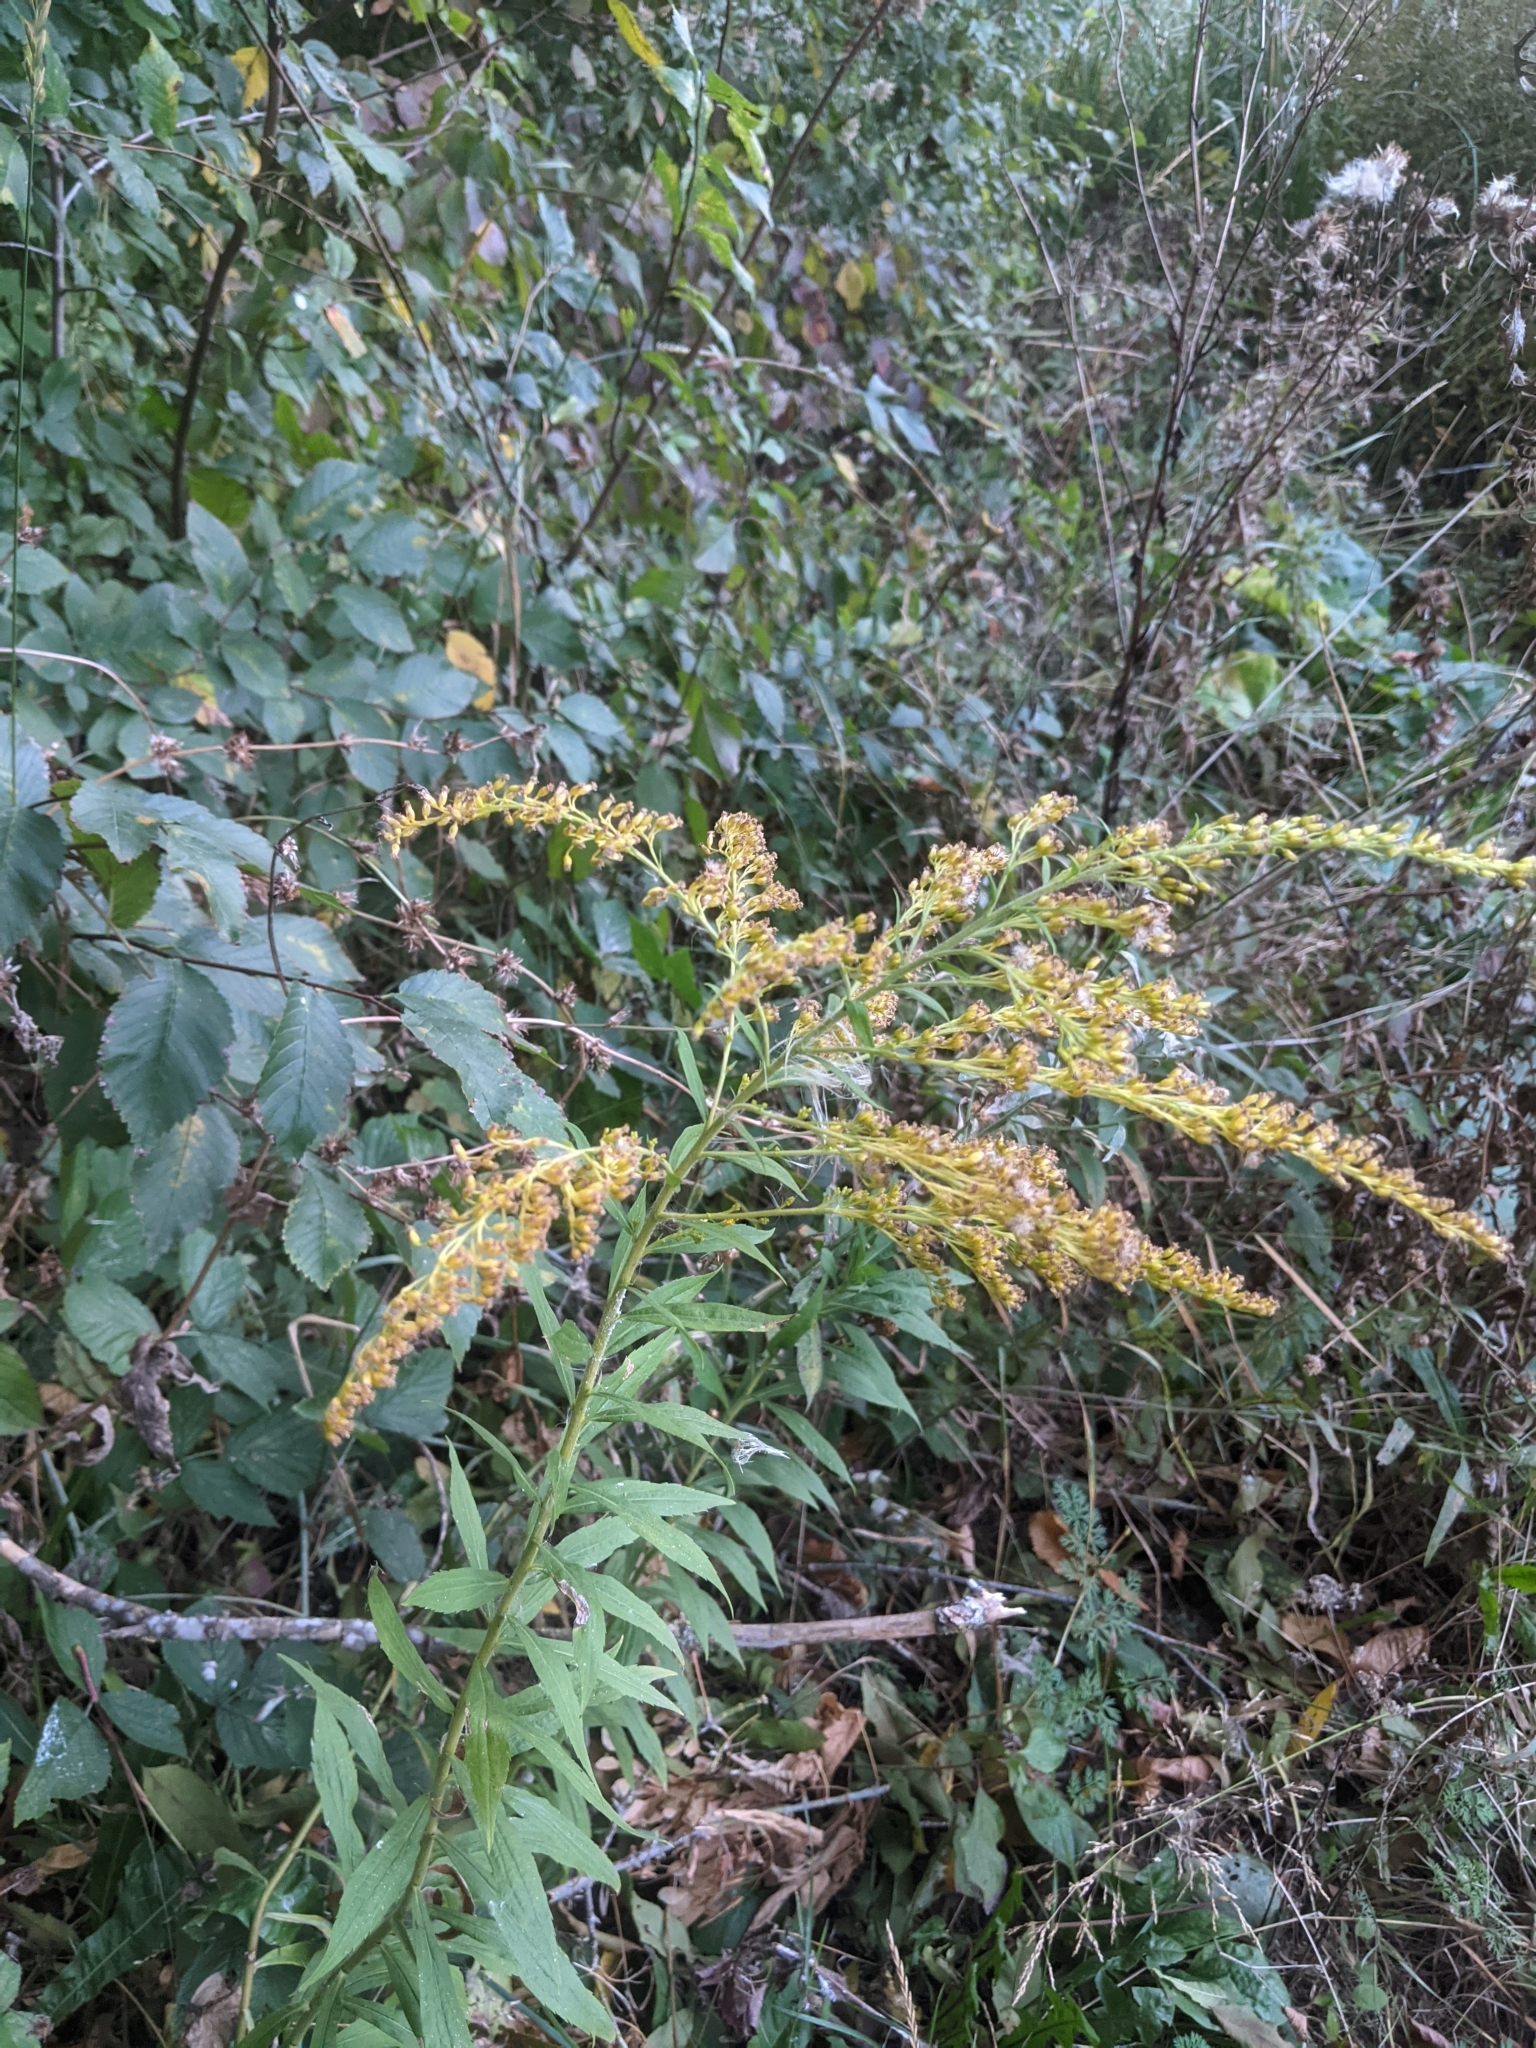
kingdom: Plantae
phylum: Tracheophyta
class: Magnoliopsida
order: Asterales
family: Asteraceae
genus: Solidago
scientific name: Solidago canadensis
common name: Canada goldenrod
